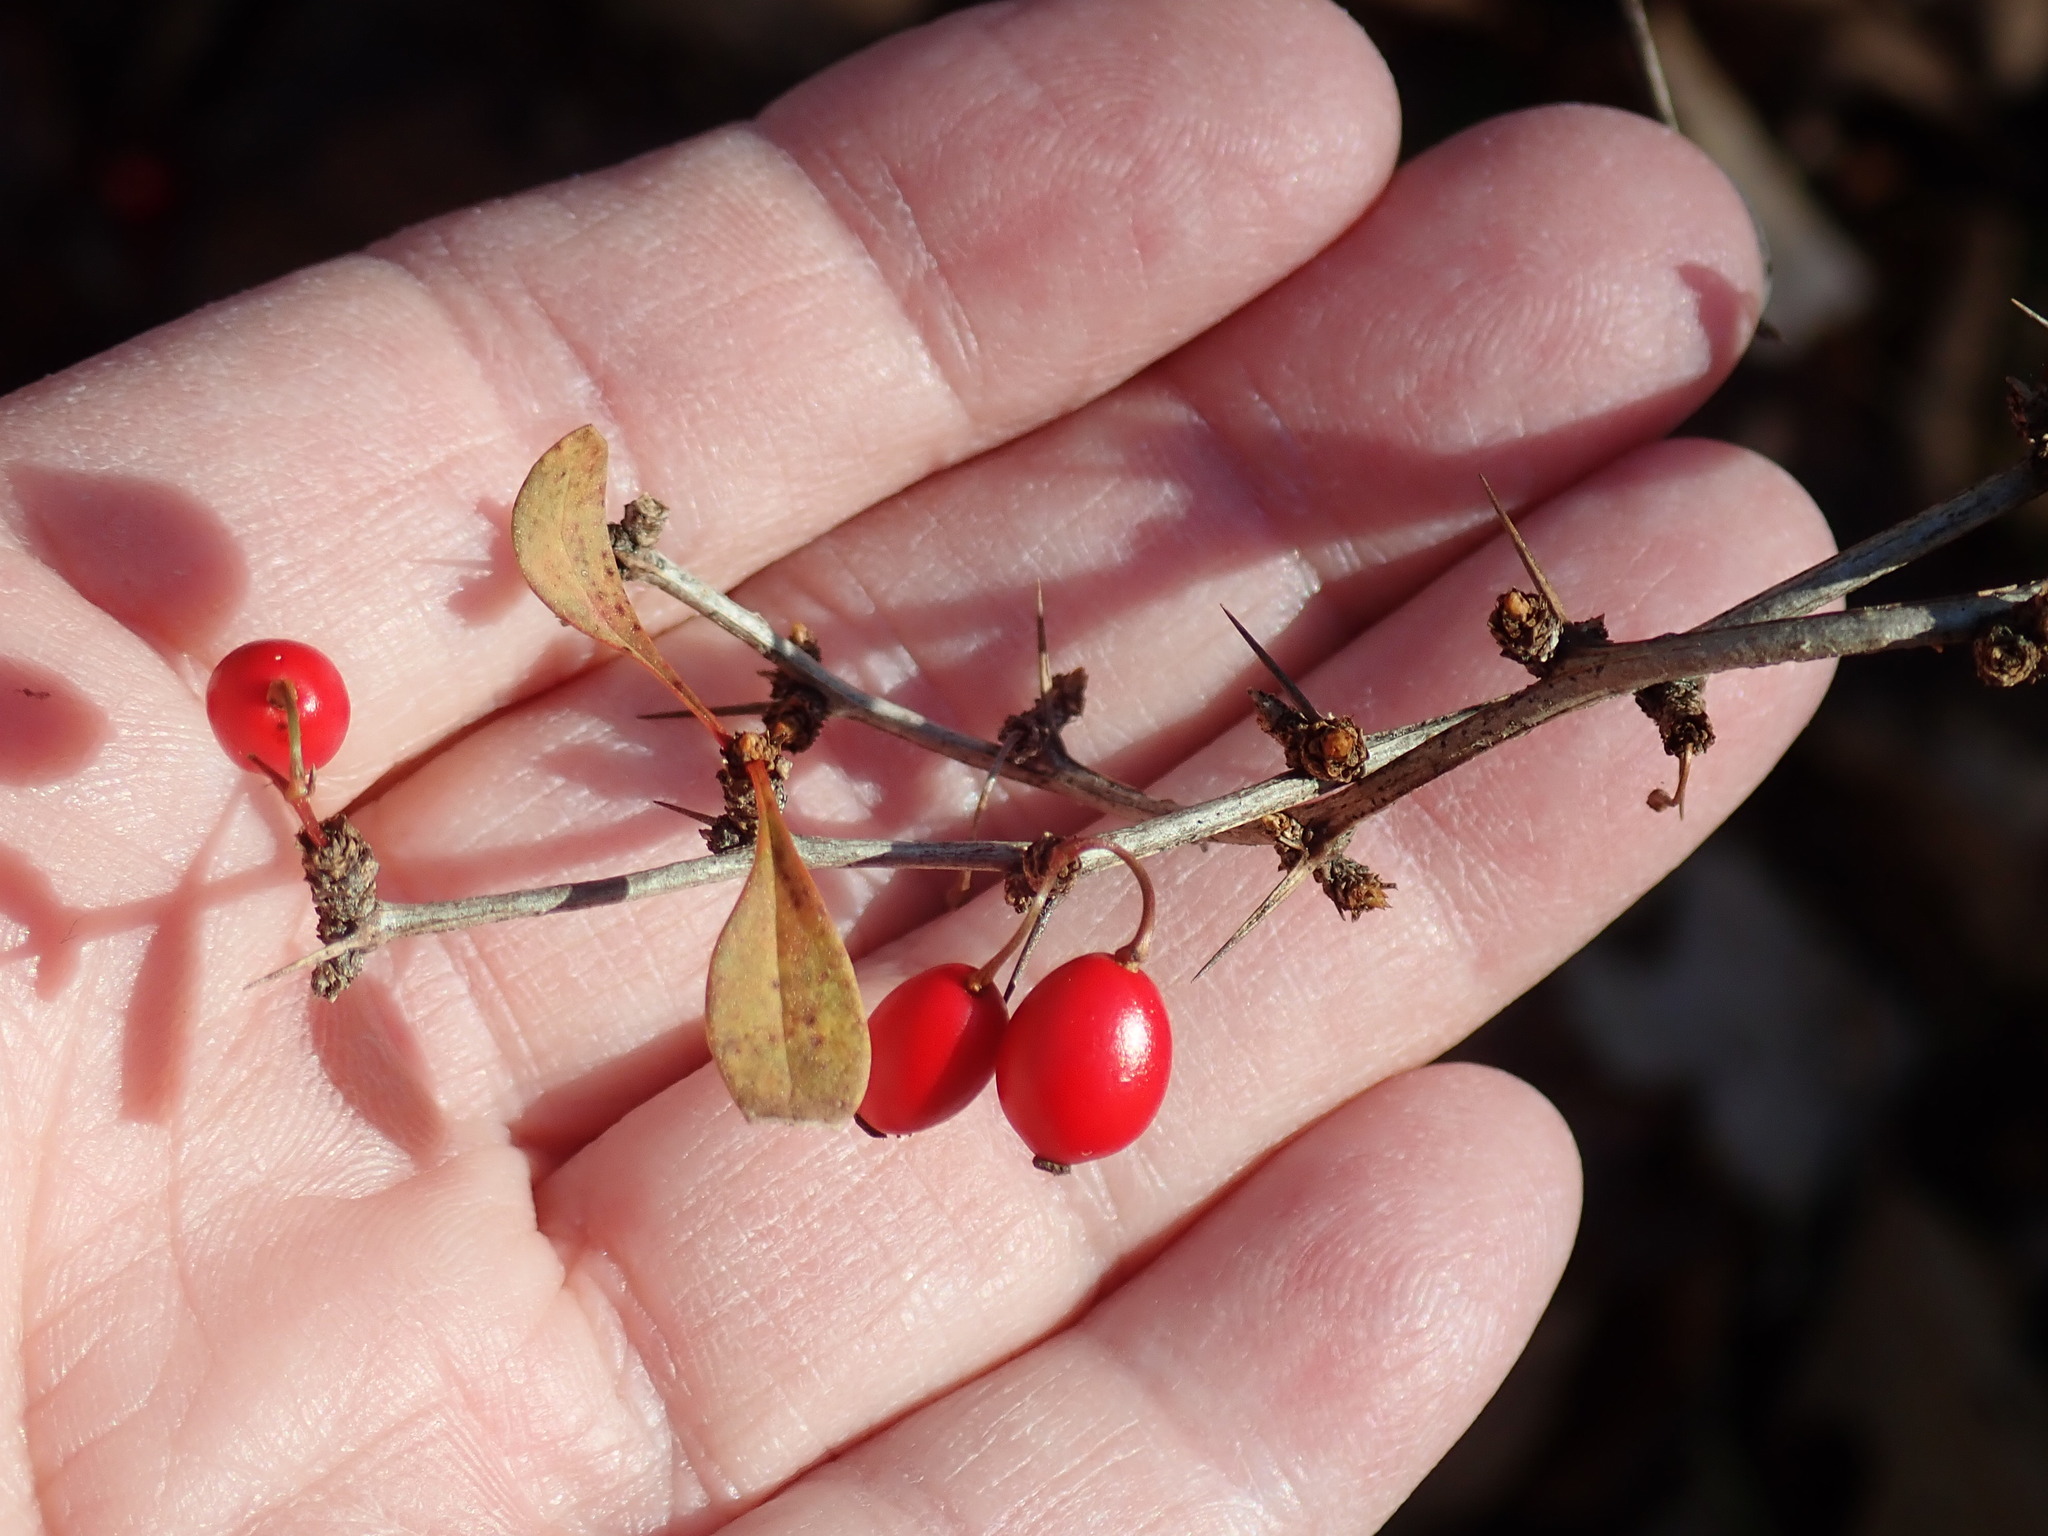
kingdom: Plantae
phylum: Tracheophyta
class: Magnoliopsida
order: Ranunculales
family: Berberidaceae
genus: Berberis
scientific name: Berberis thunbergii
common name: Japanese barberry
